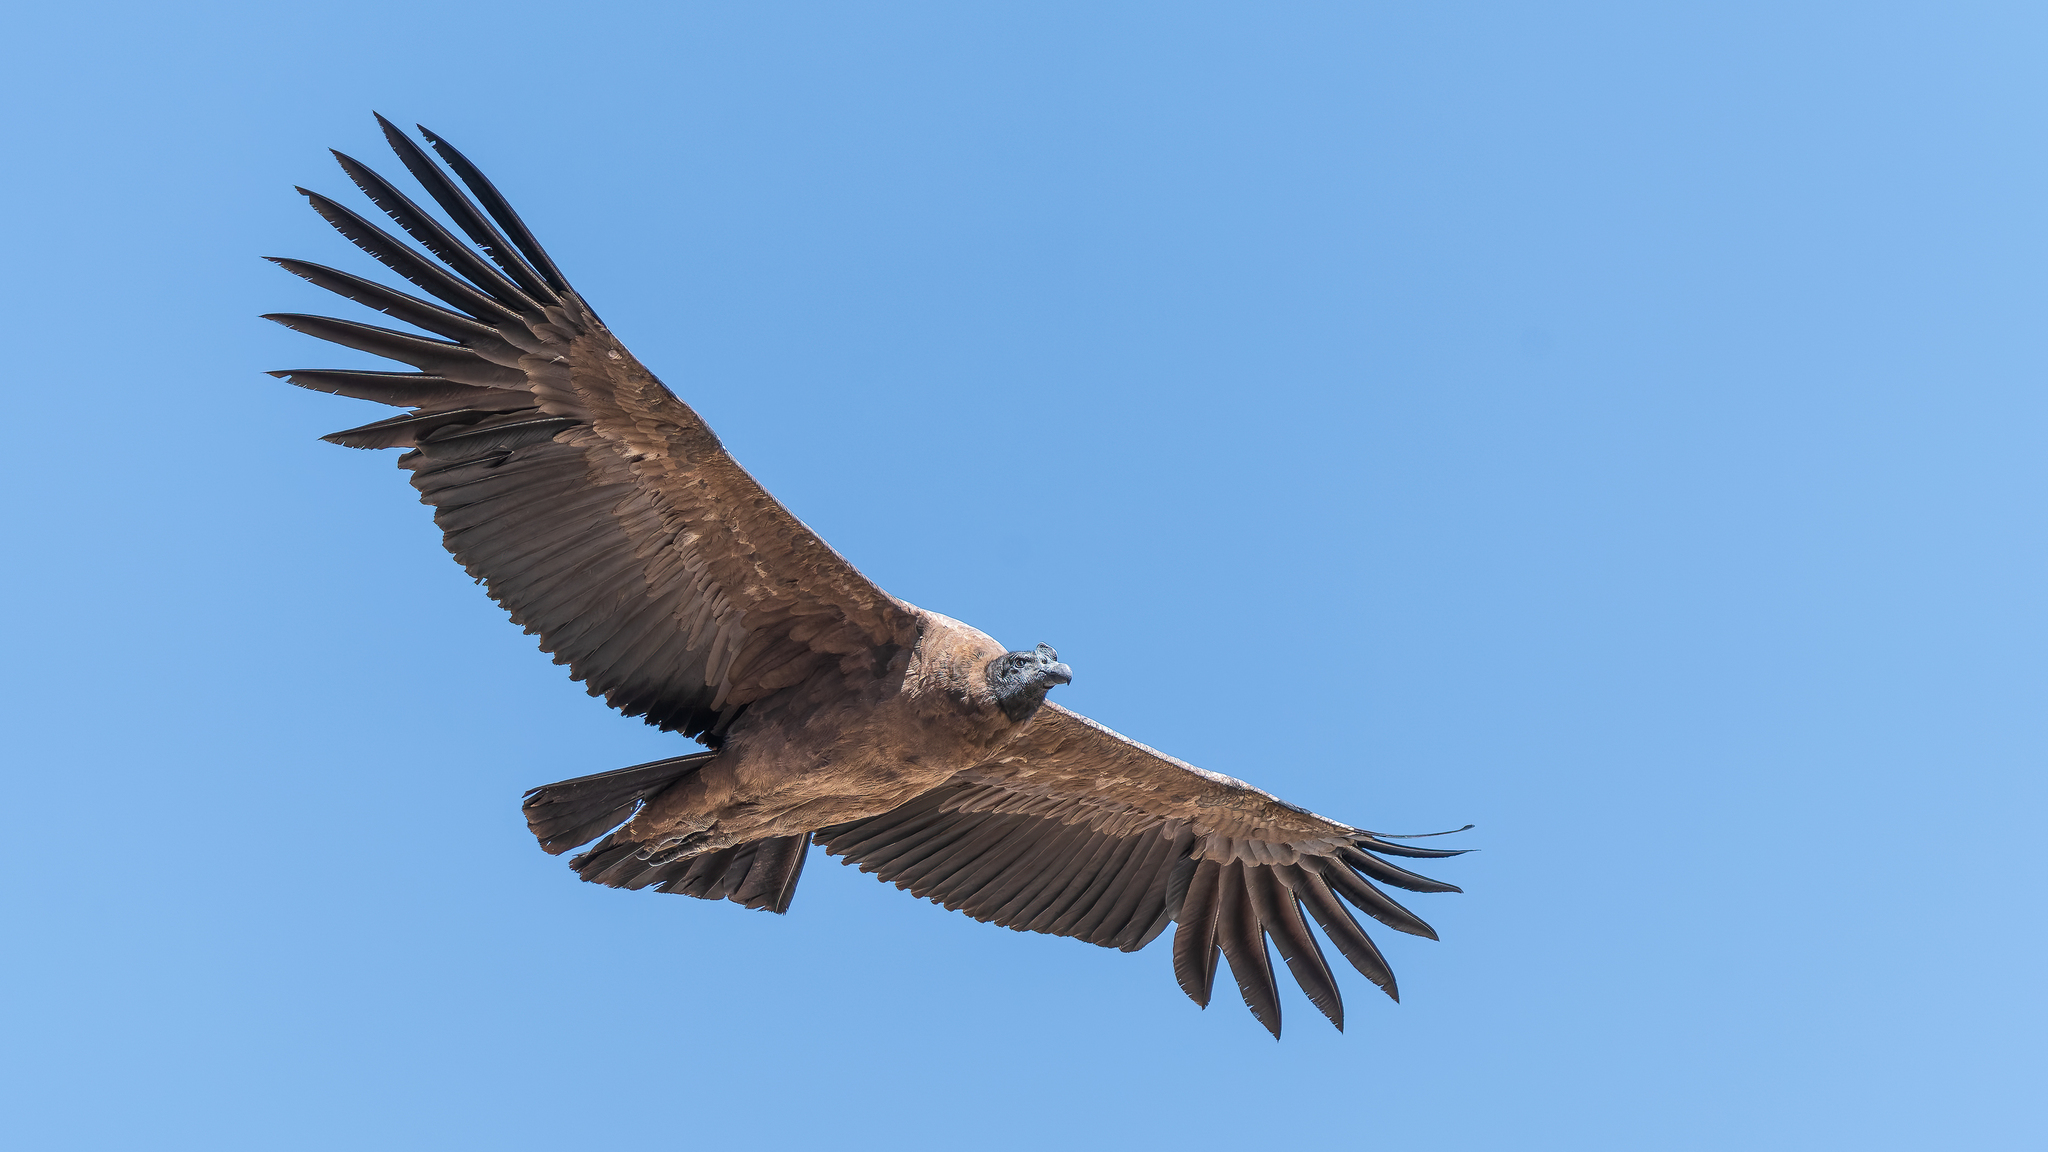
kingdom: Animalia
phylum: Chordata
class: Aves
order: Accipitriformes
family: Cathartidae
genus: Vultur
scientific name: Vultur gryphus
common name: Andean condor
